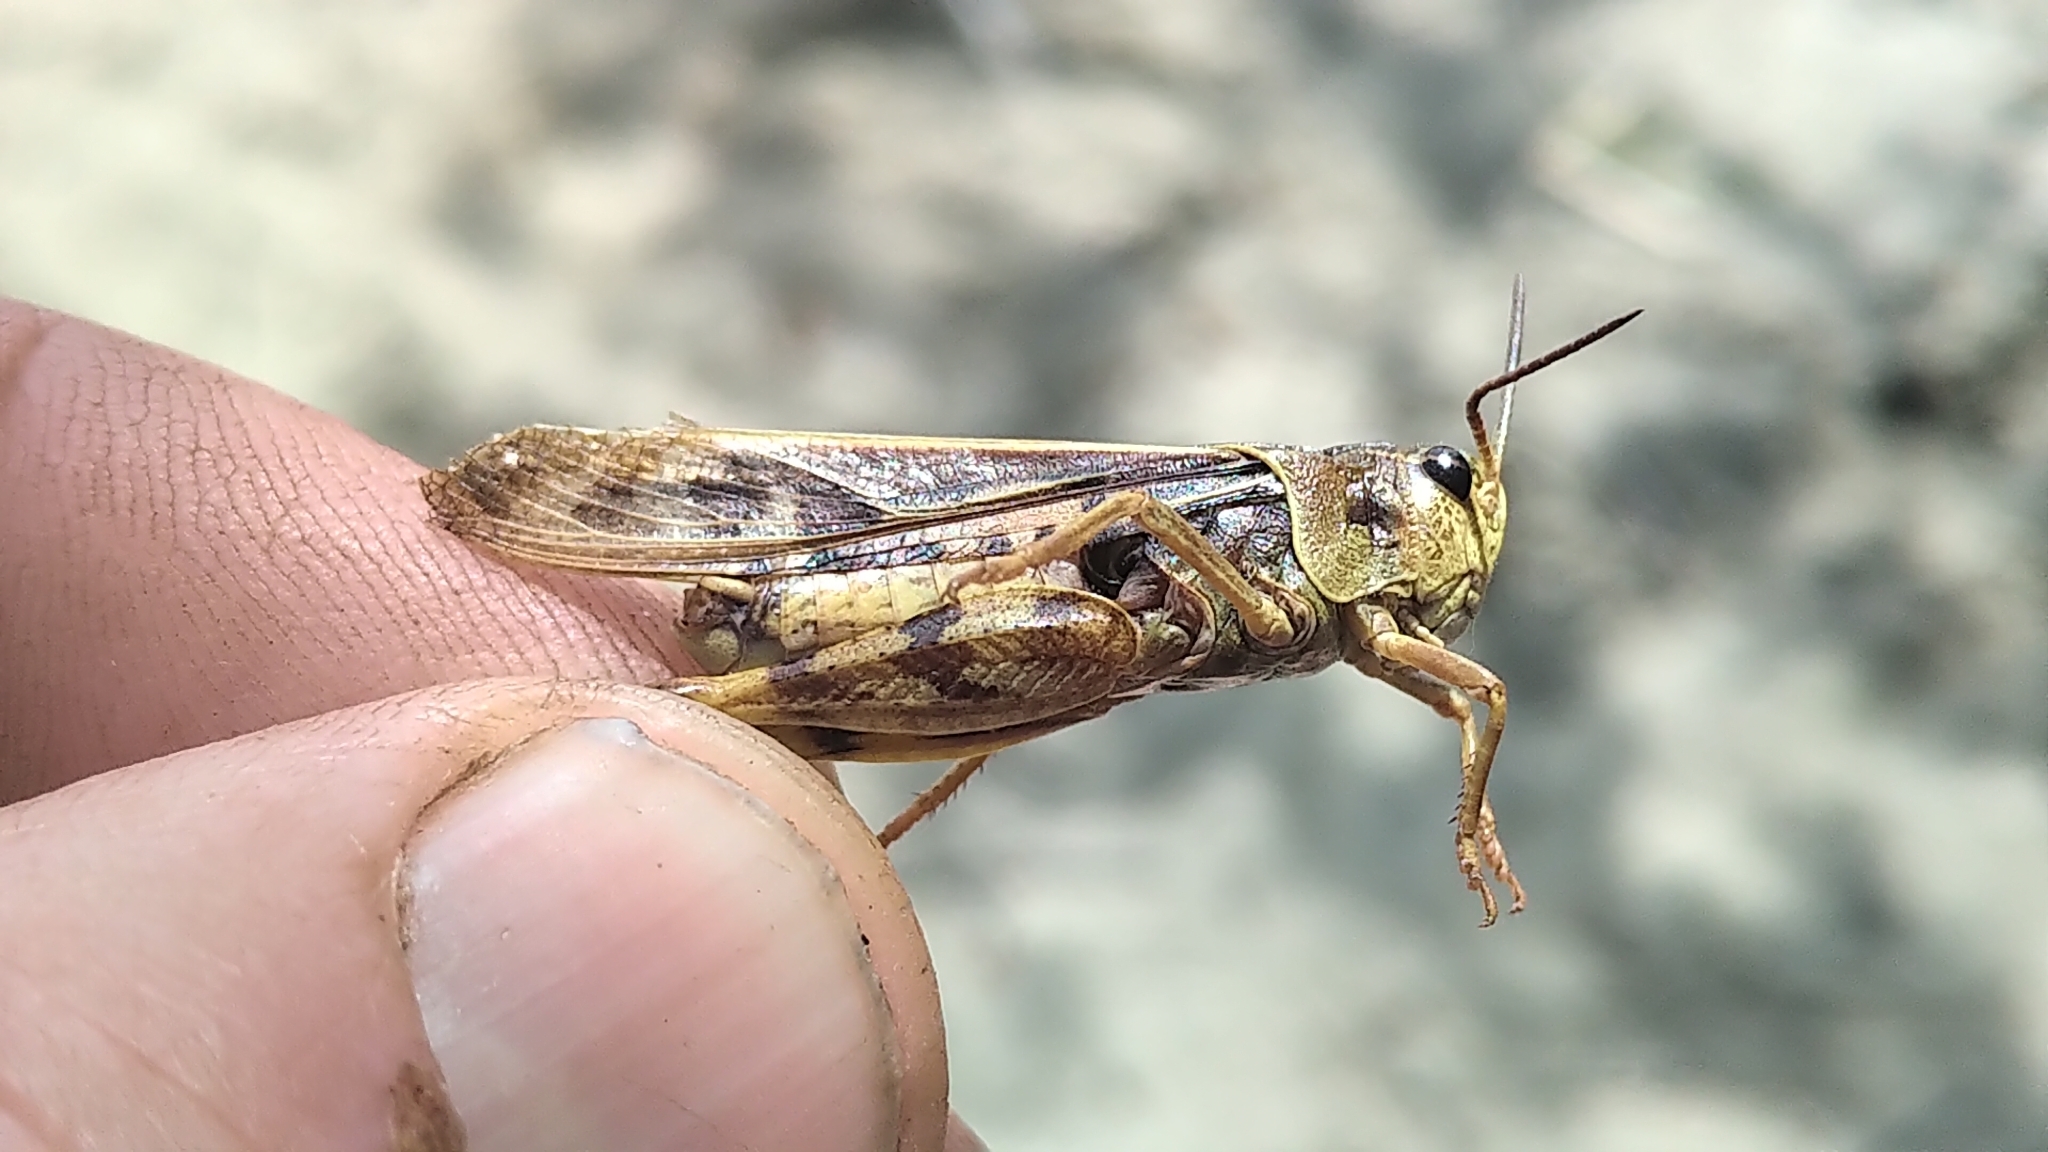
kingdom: Animalia
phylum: Arthropoda
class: Insecta
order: Orthoptera
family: Acrididae
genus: Pardalophora
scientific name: Pardalophora apiculata
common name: Coral-winged locust
